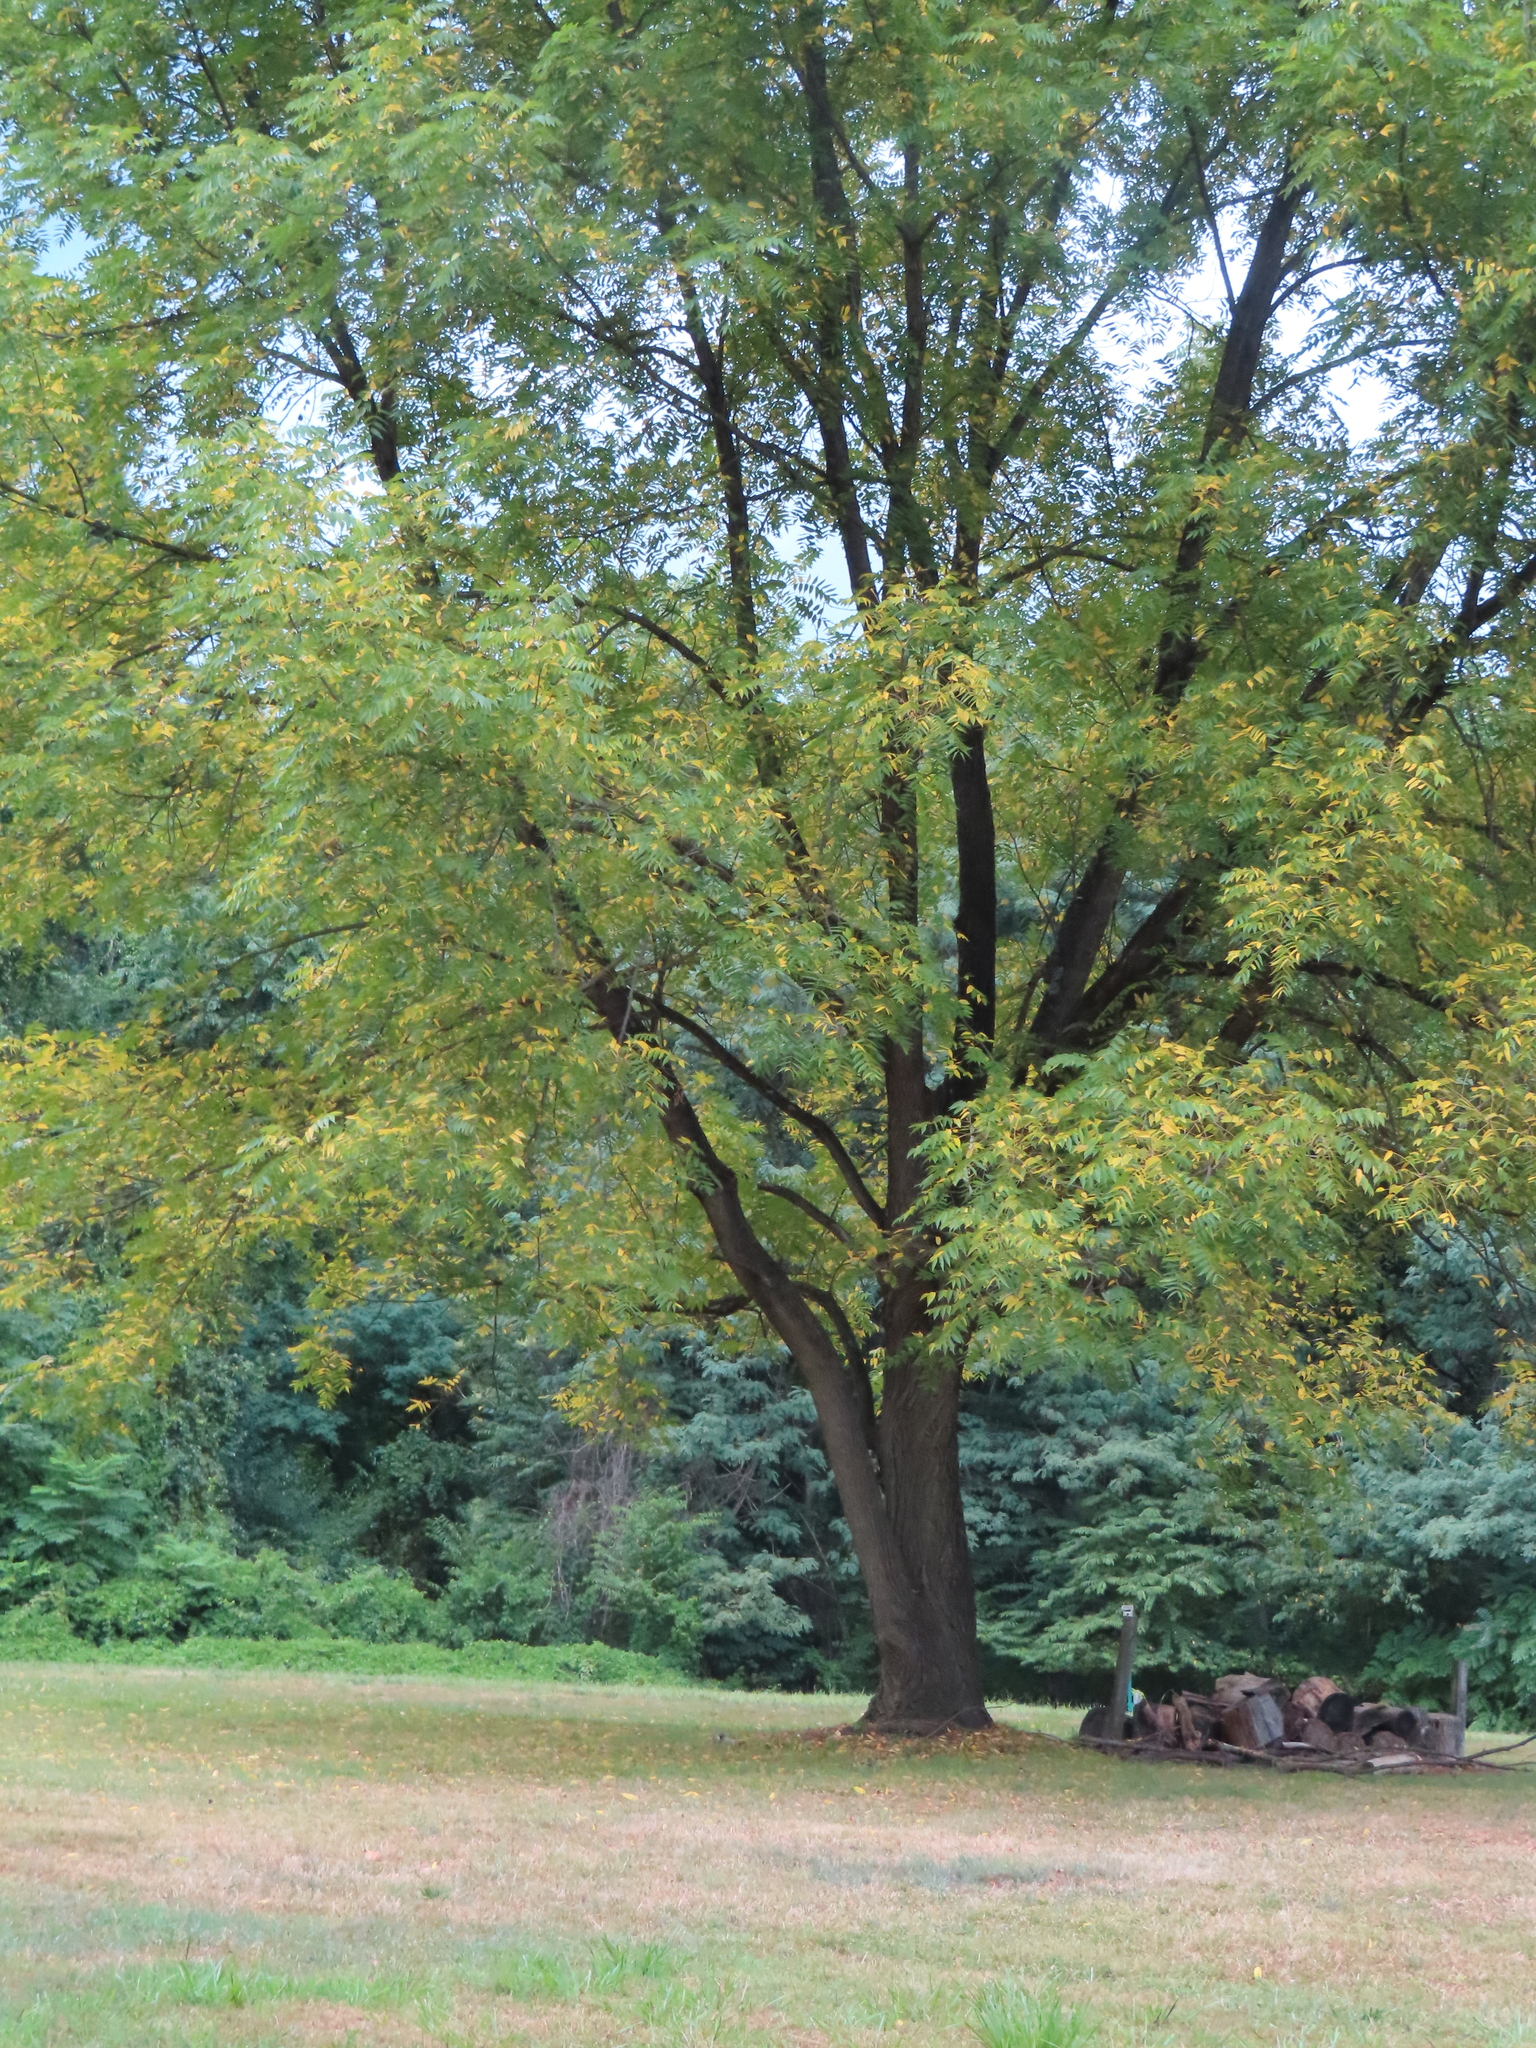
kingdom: Plantae
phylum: Tracheophyta
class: Magnoliopsida
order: Fagales
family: Juglandaceae
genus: Juglans
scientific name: Juglans nigra
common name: Black walnut
